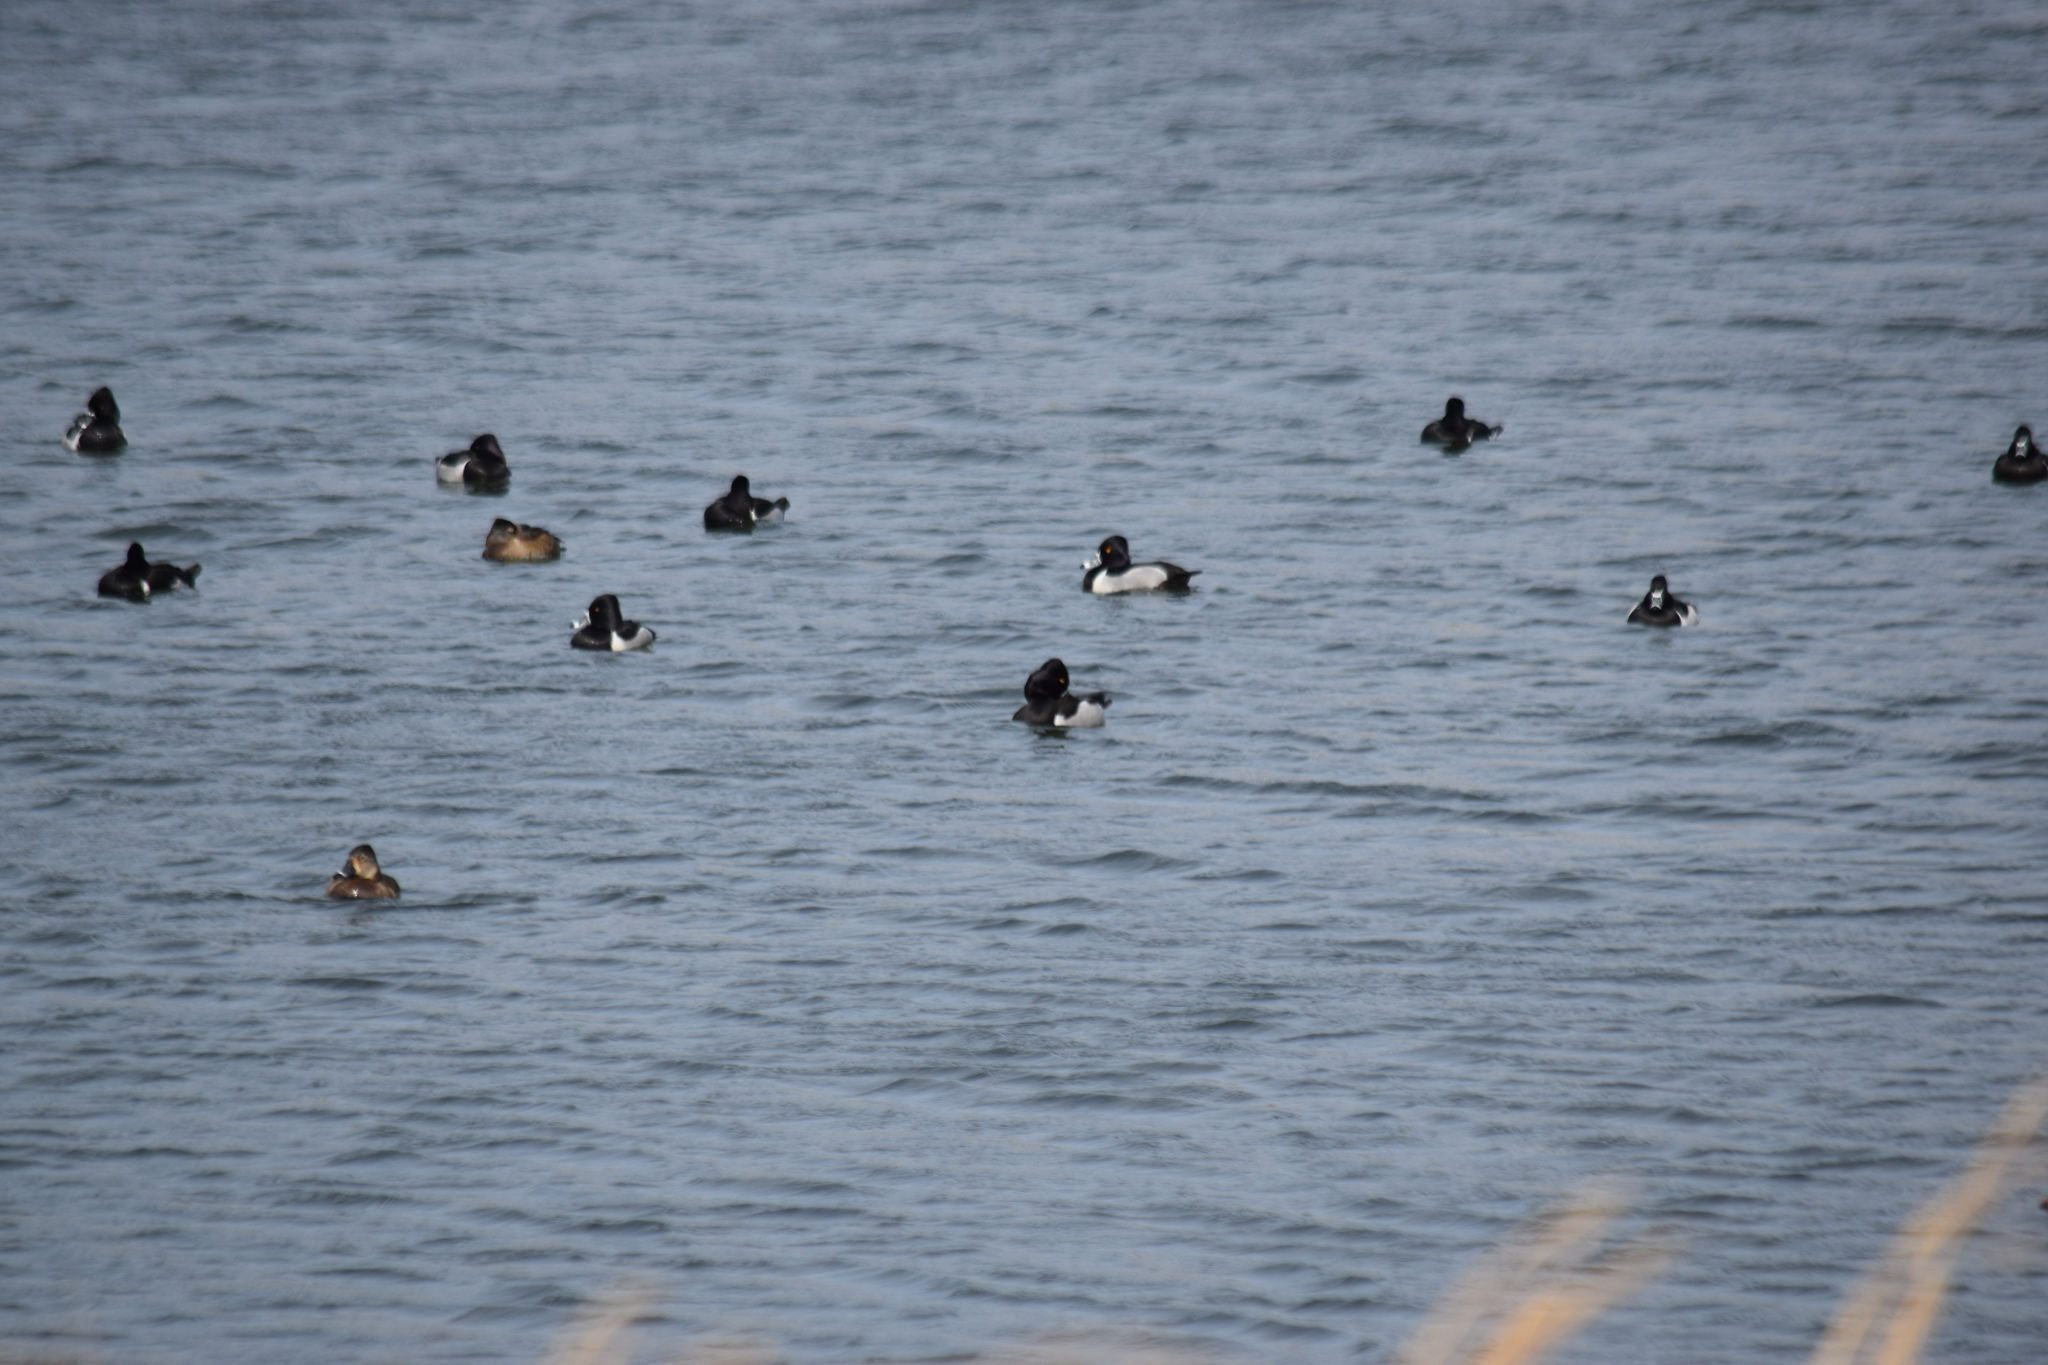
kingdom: Animalia
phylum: Chordata
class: Aves
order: Anseriformes
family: Anatidae
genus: Aythya
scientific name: Aythya collaris
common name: Ring-necked duck
